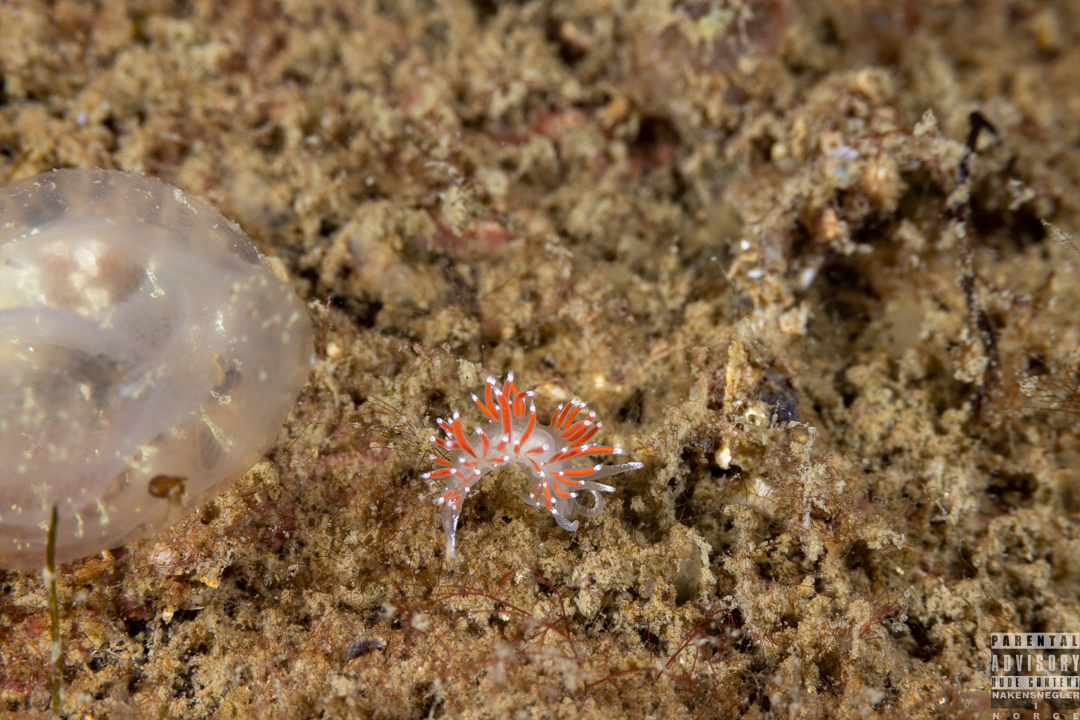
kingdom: Animalia
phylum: Mollusca
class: Gastropoda
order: Nudibranchia
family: Coryphellidae
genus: Coryphella
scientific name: Coryphella gracilis
